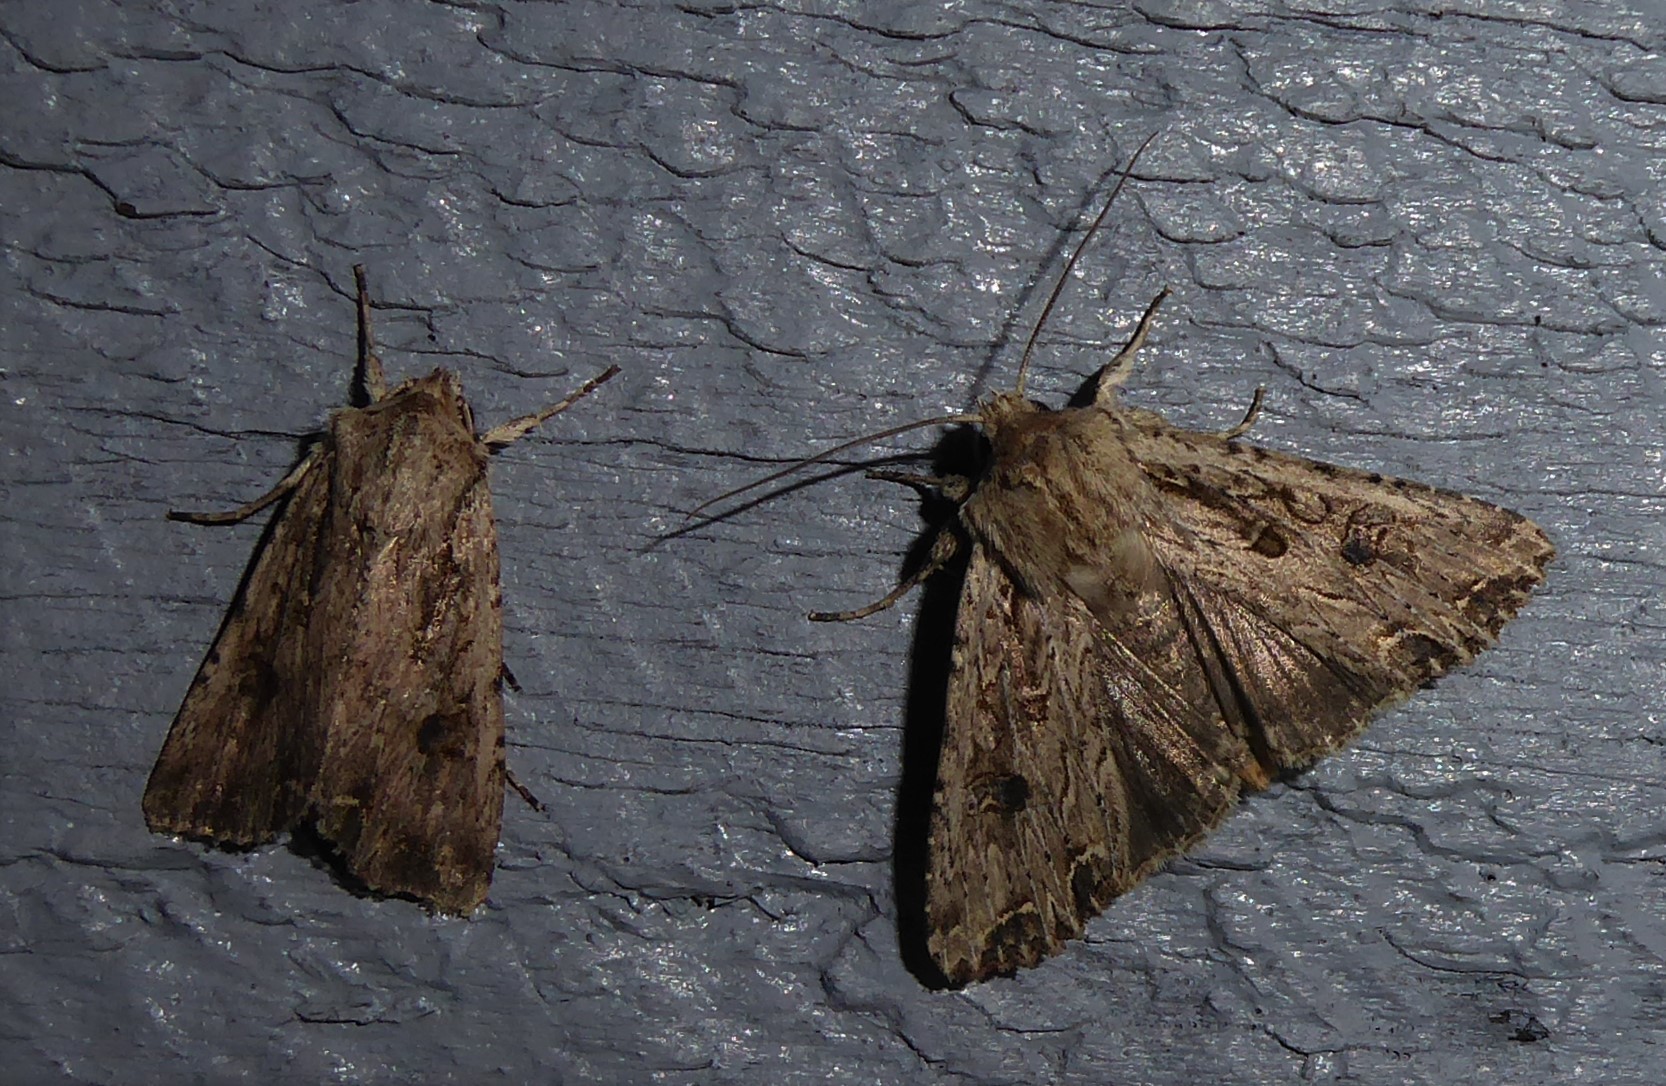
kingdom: Animalia
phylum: Arthropoda
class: Insecta
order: Lepidoptera
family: Noctuidae
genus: Ichneutica
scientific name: Ichneutica lignana
